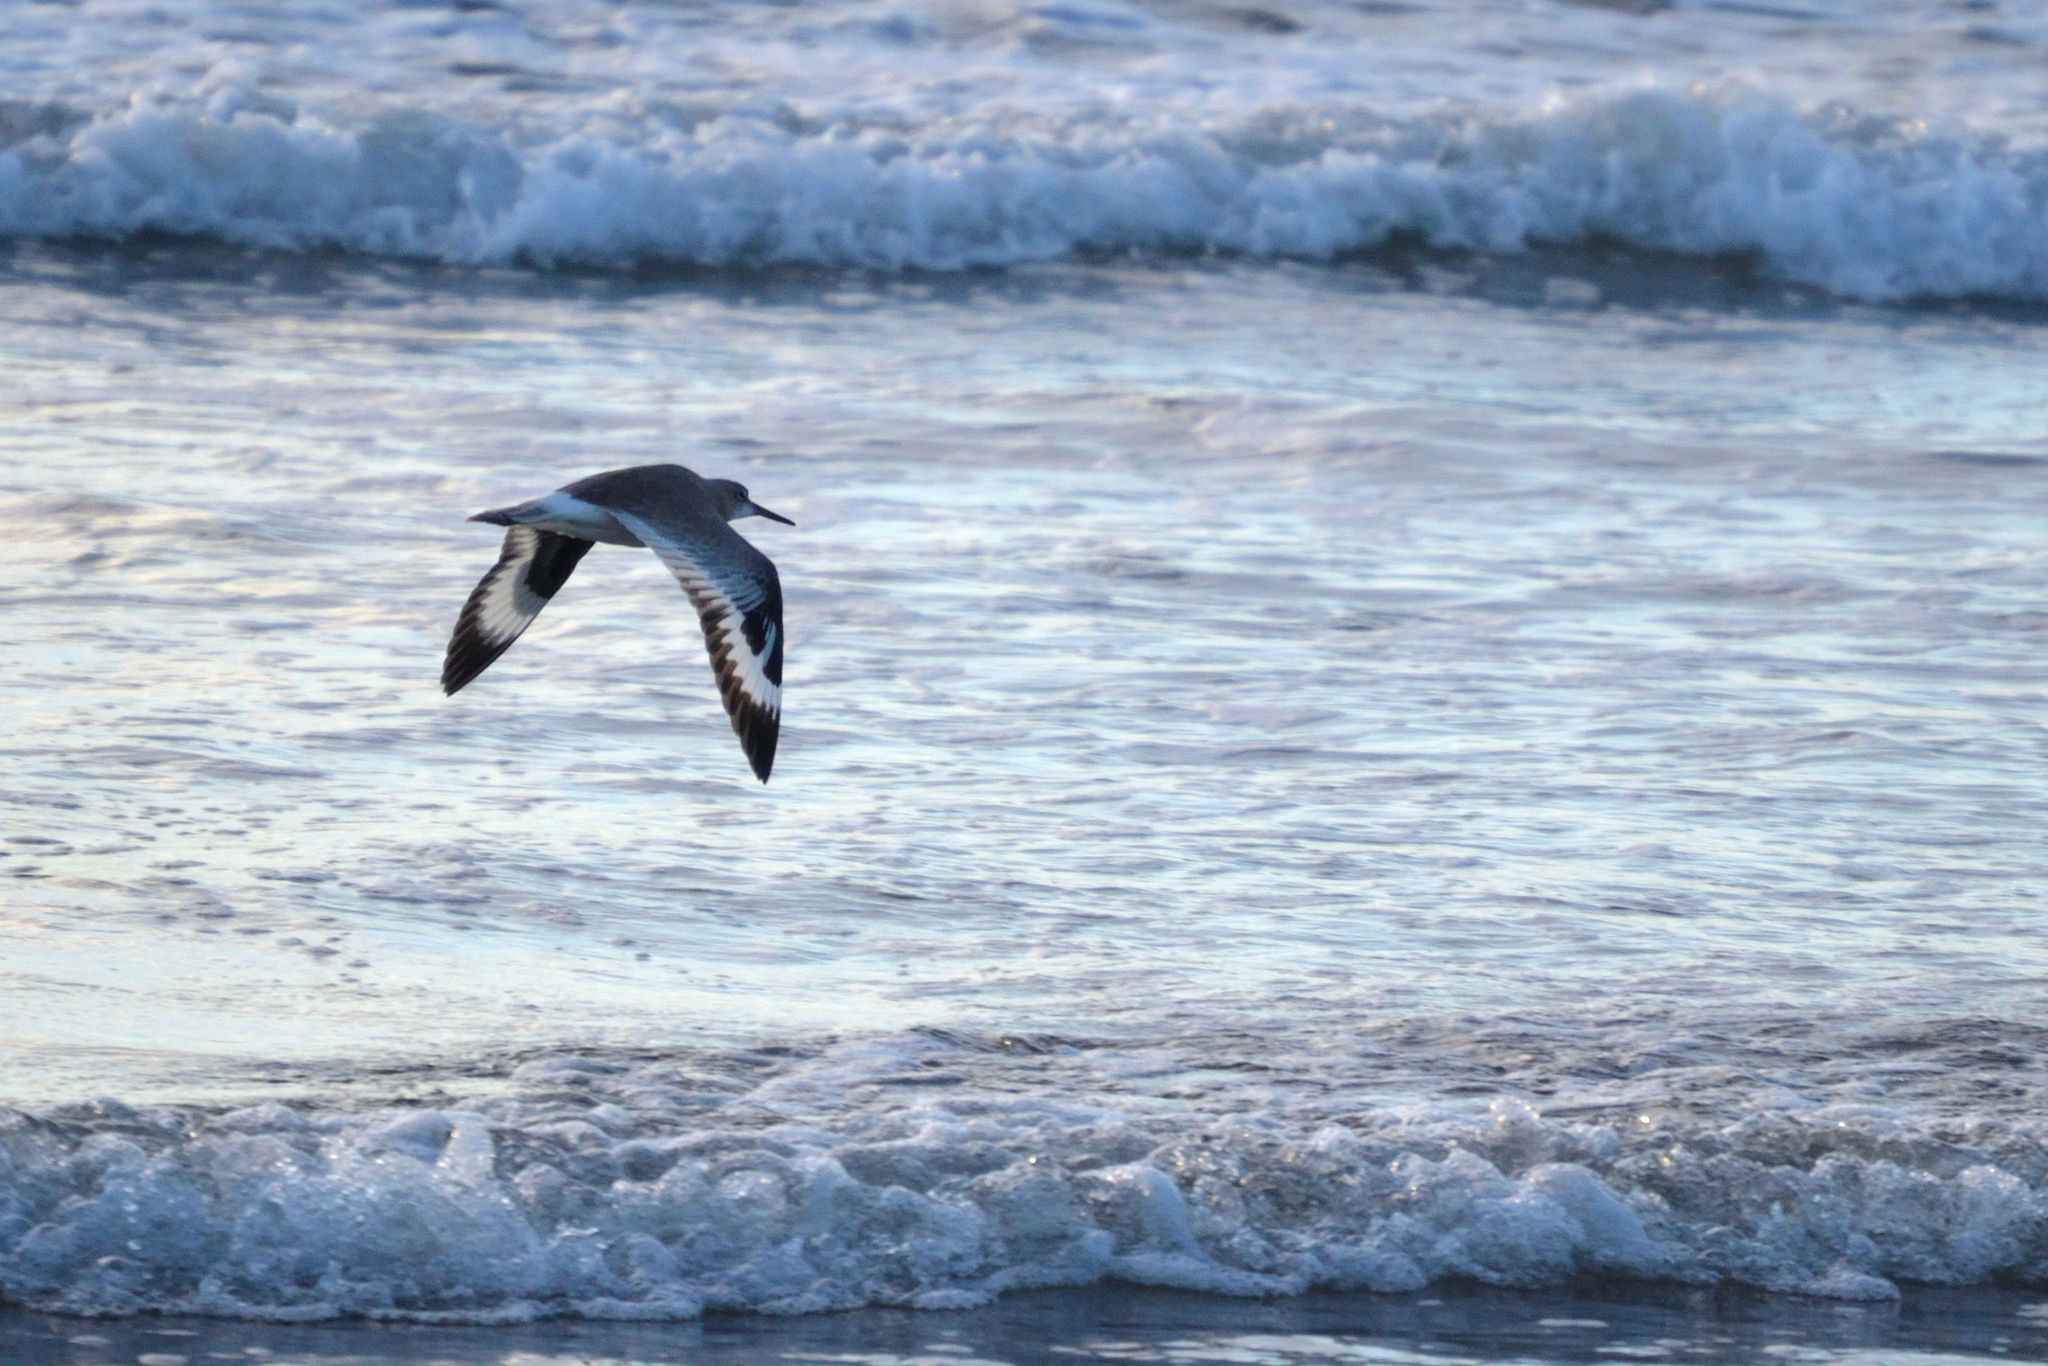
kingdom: Animalia
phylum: Chordata
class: Aves
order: Charadriiformes
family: Scolopacidae
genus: Tringa
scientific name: Tringa semipalmata
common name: Willet
